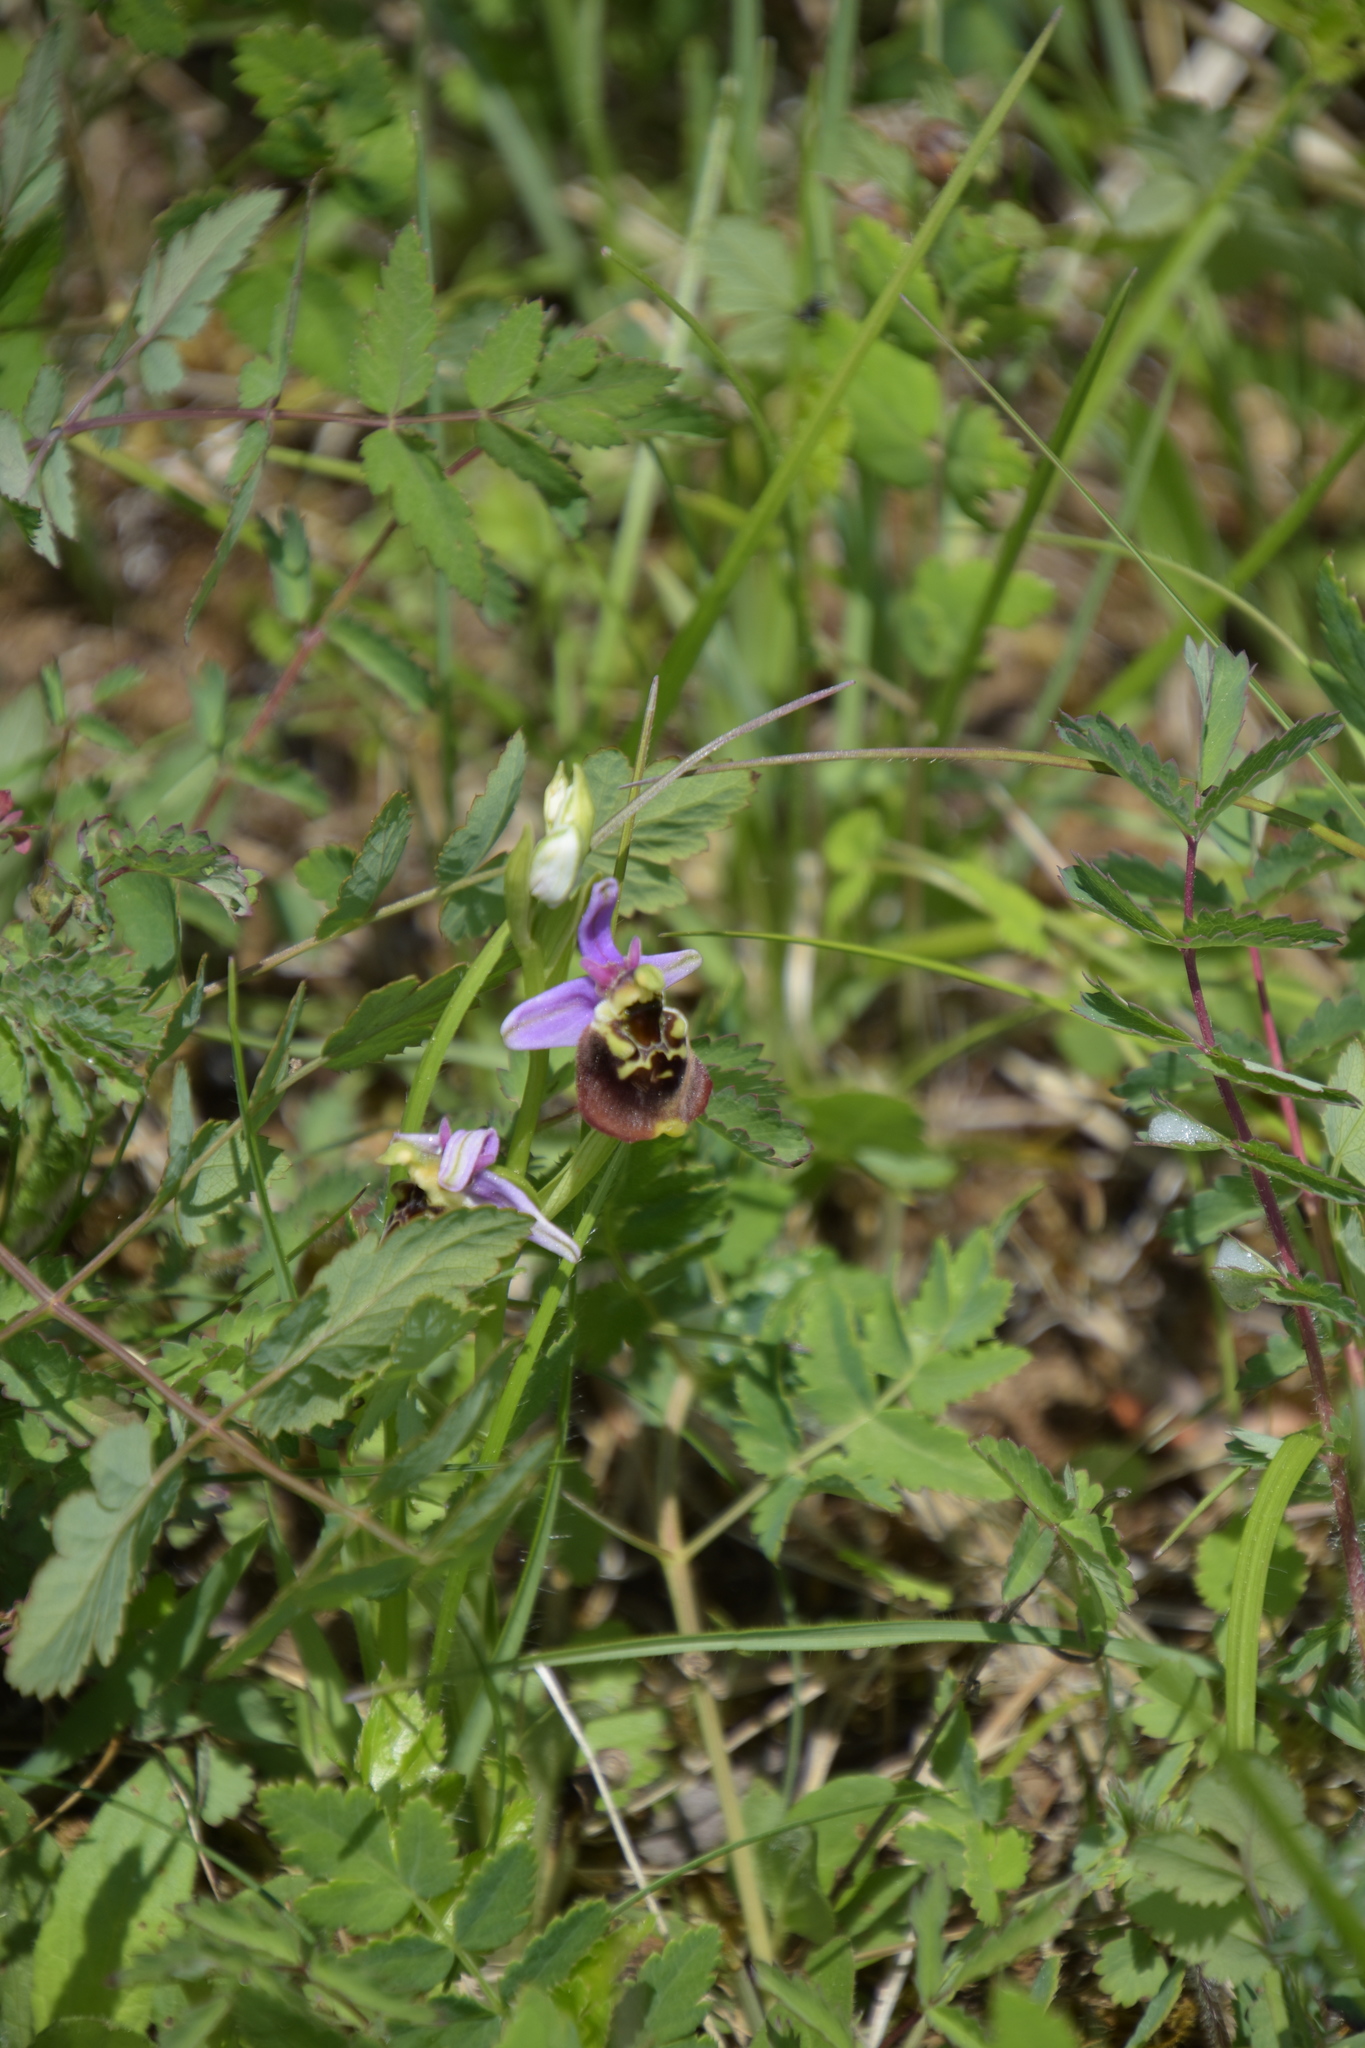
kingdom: Plantae
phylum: Tracheophyta
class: Liliopsida
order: Asparagales
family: Orchidaceae
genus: Ophrys
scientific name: Ophrys holosericea
